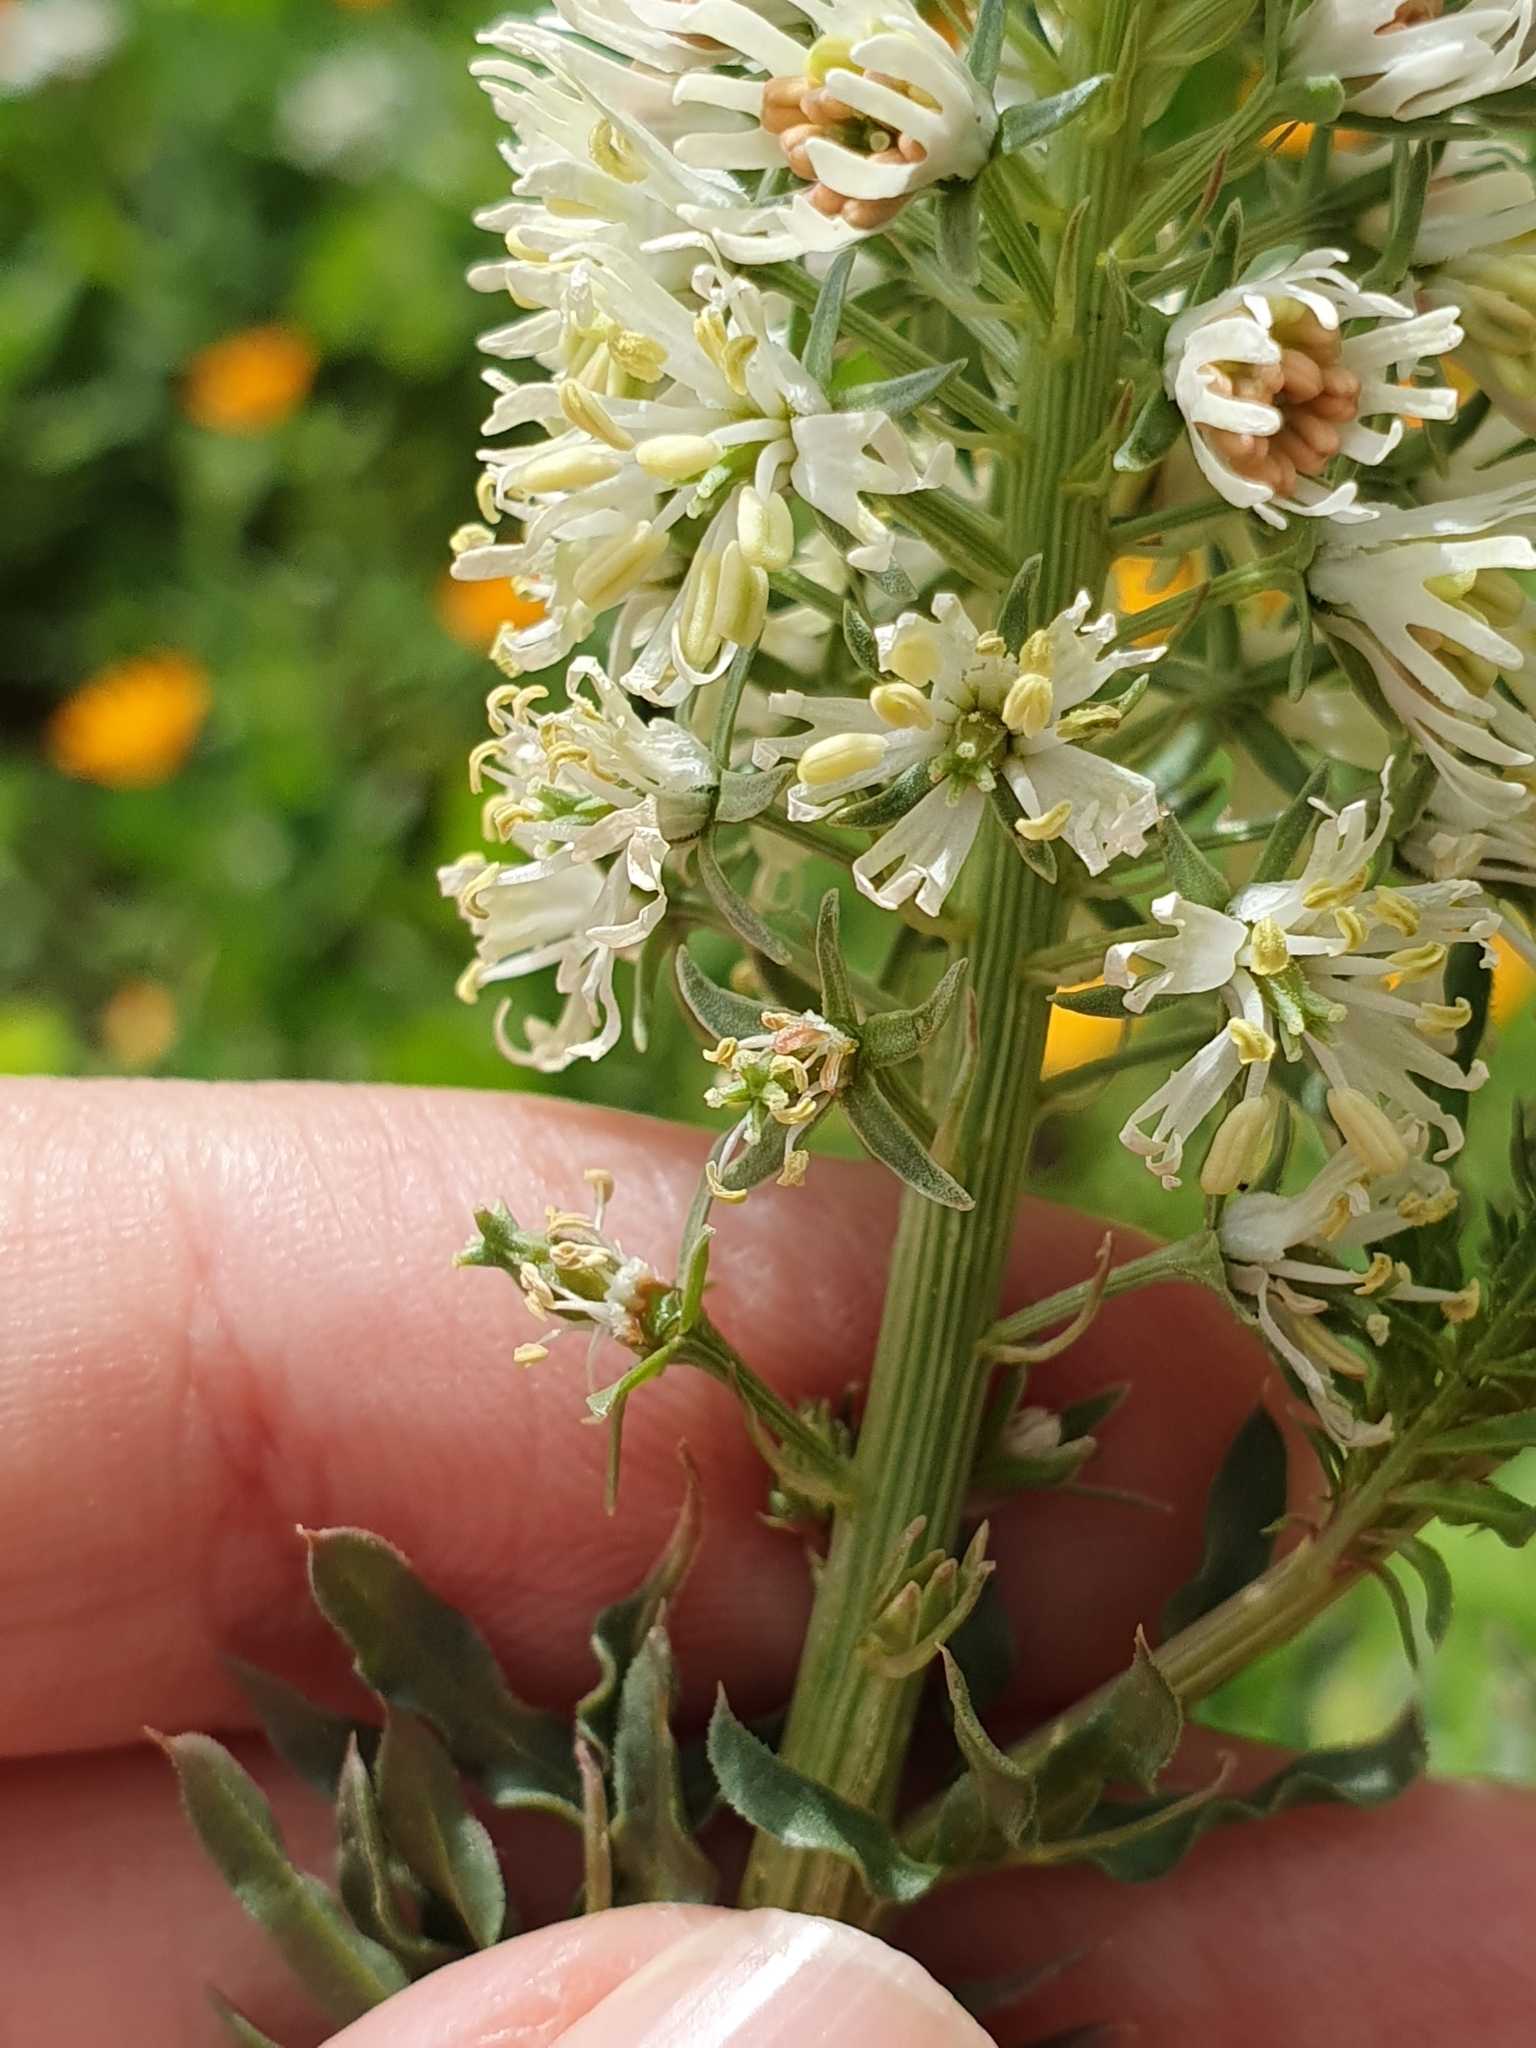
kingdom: Plantae
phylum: Tracheophyta
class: Magnoliopsida
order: Brassicales
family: Resedaceae
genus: Reseda
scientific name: Reseda alba
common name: White mignonette
